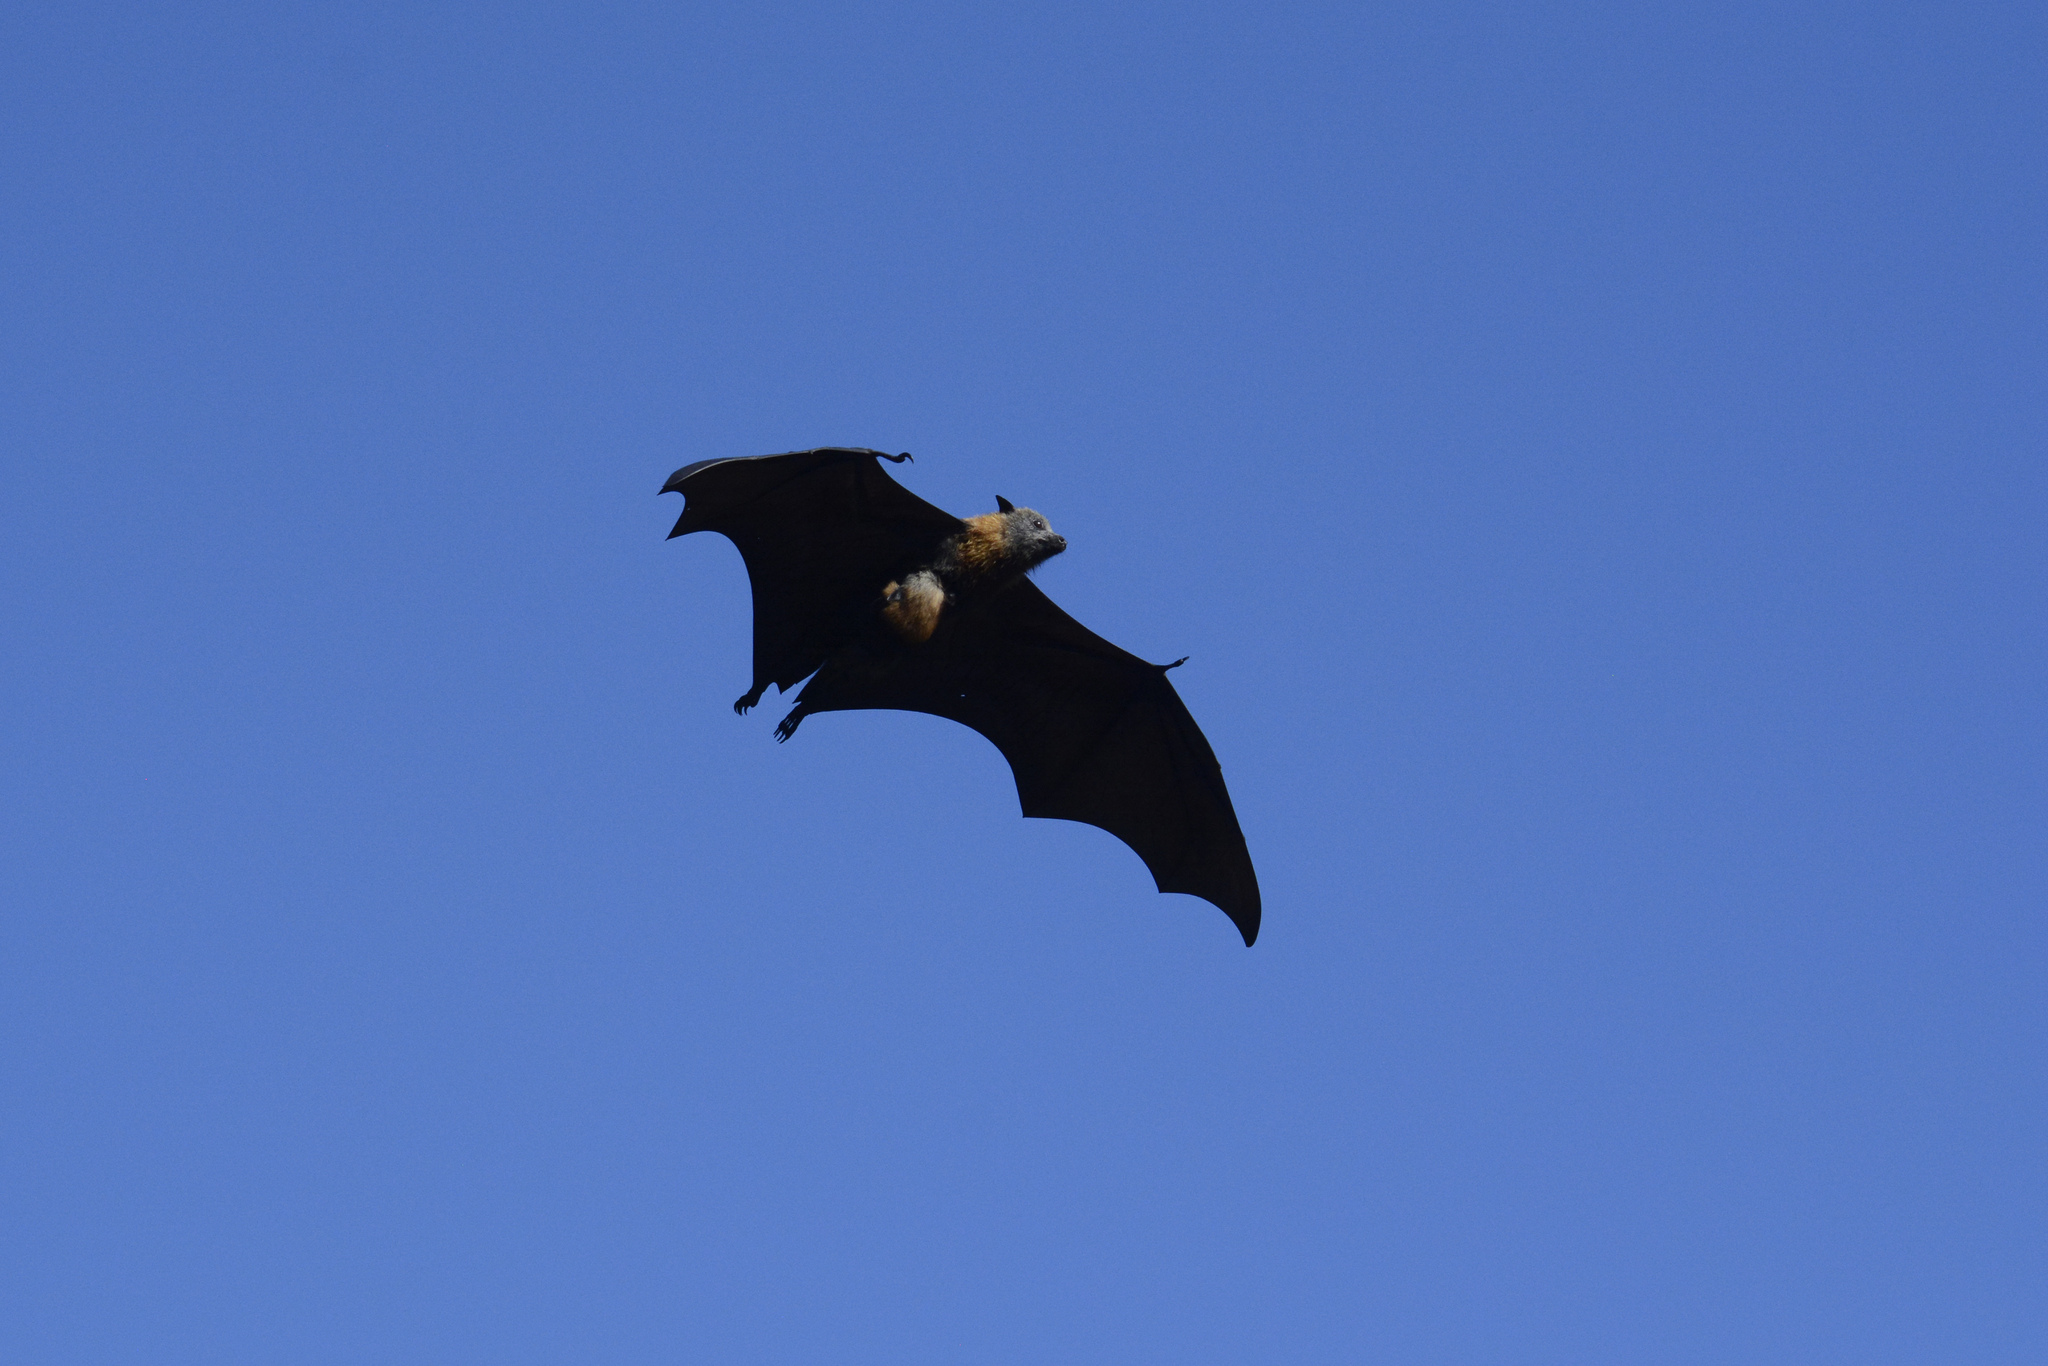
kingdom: Animalia
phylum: Chordata
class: Mammalia
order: Chiroptera
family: Pteropodidae
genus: Pteropus
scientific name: Pteropus poliocephalus
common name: Gray-headed flying fox
